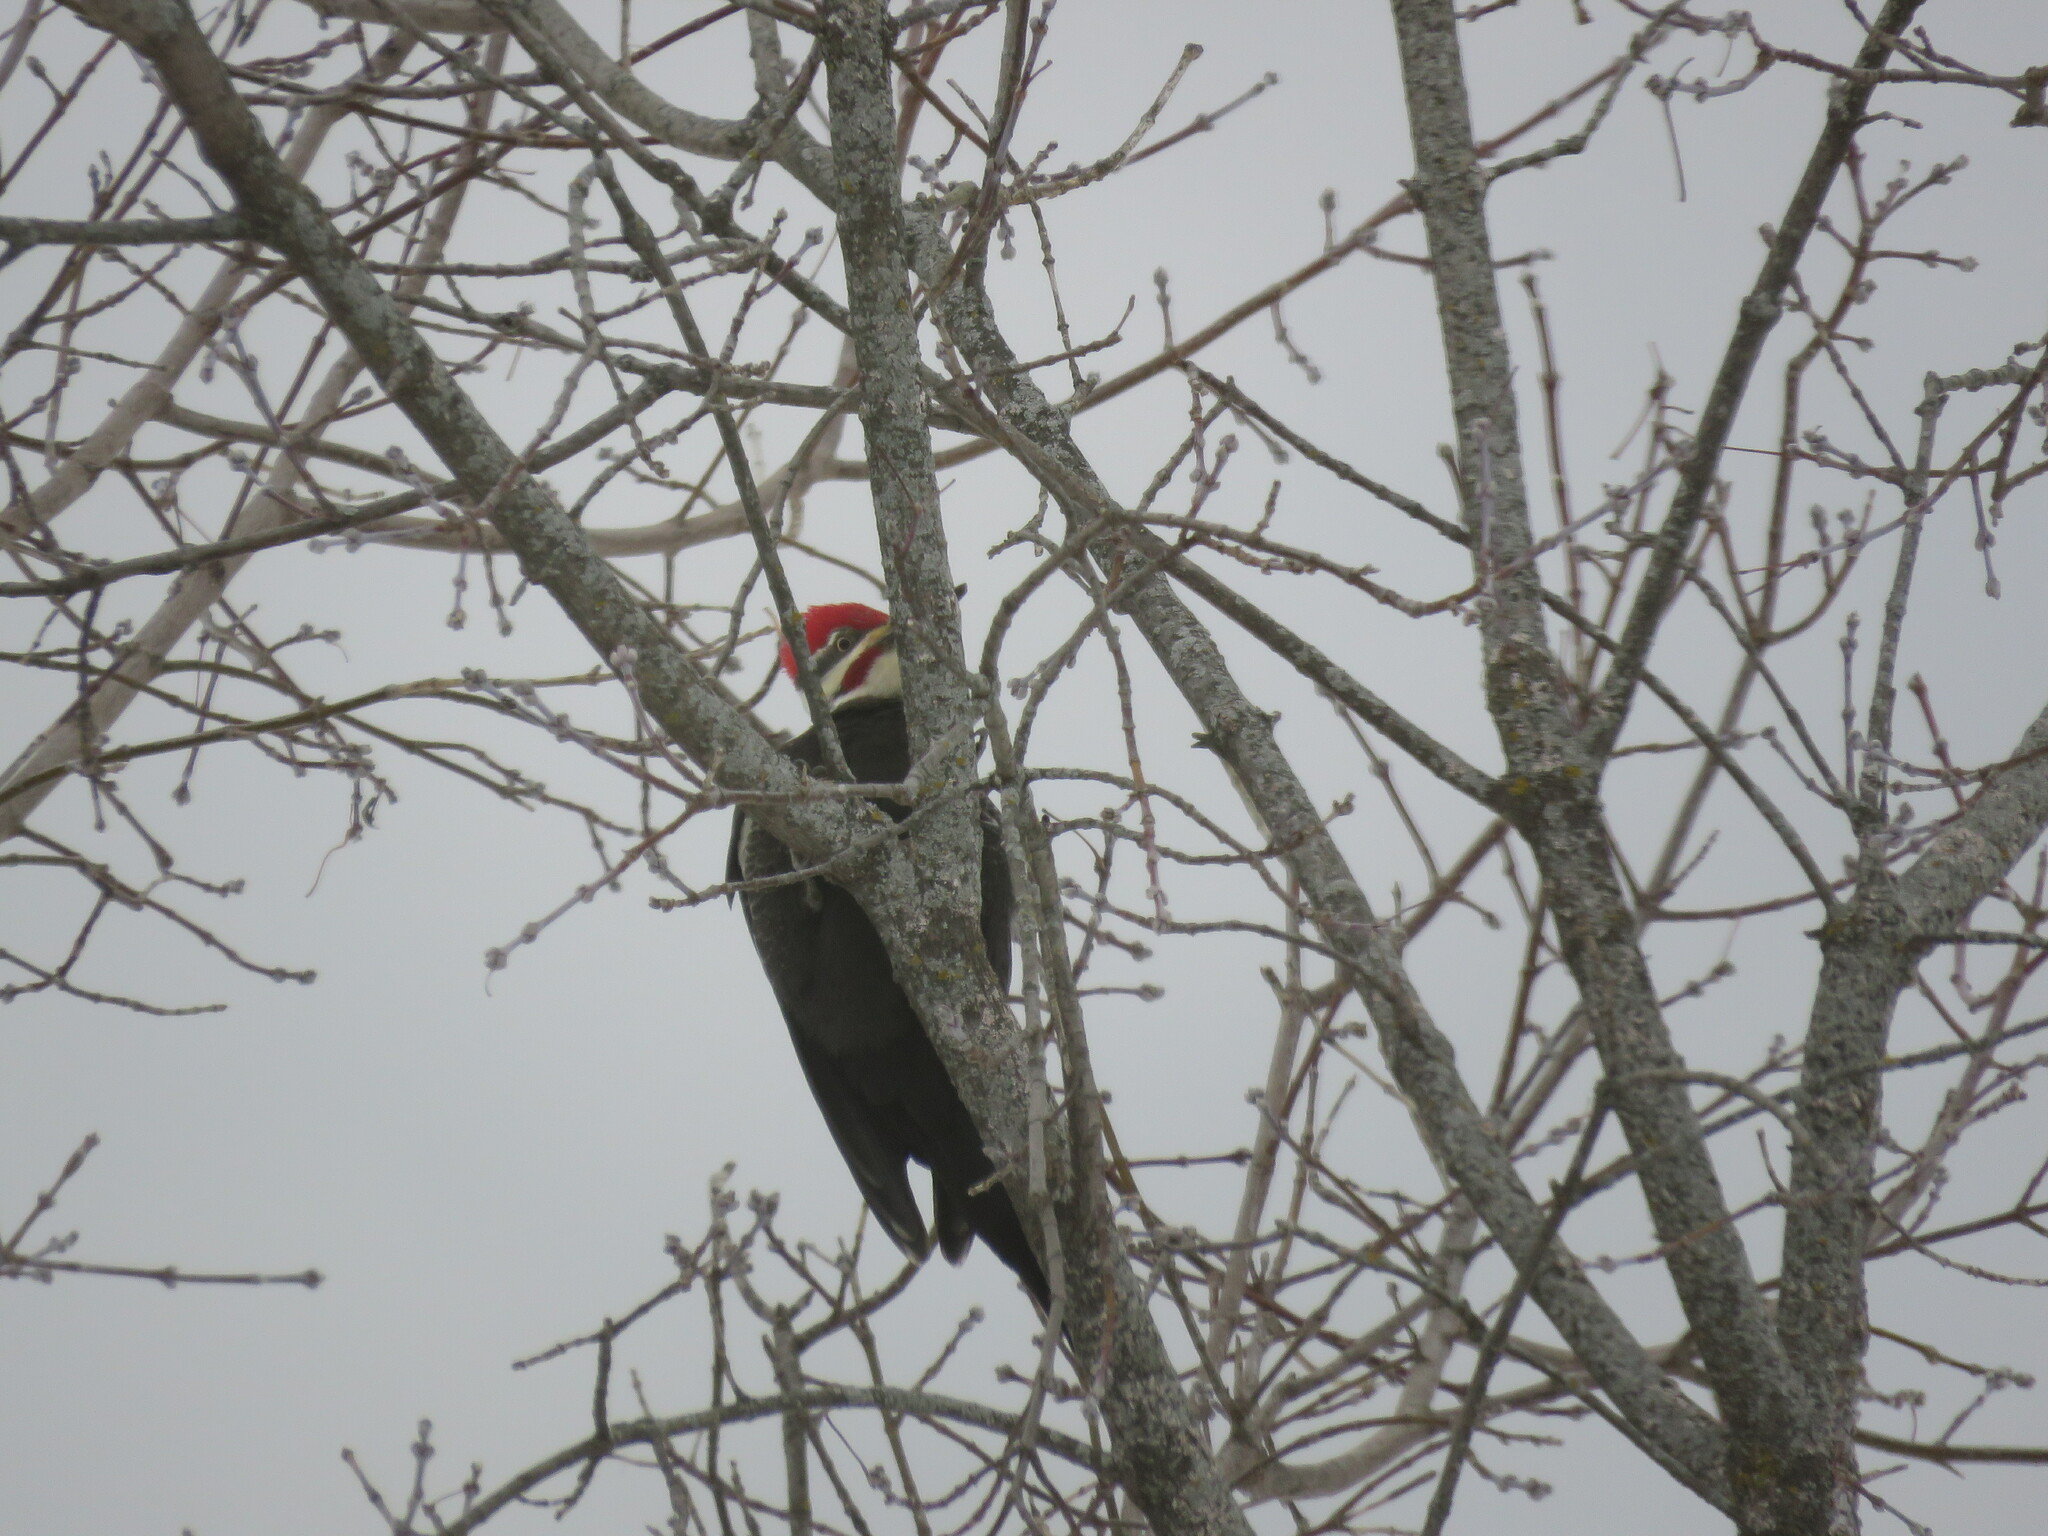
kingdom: Animalia
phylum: Chordata
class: Aves
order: Piciformes
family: Picidae
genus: Dryocopus
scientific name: Dryocopus pileatus
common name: Pileated woodpecker
